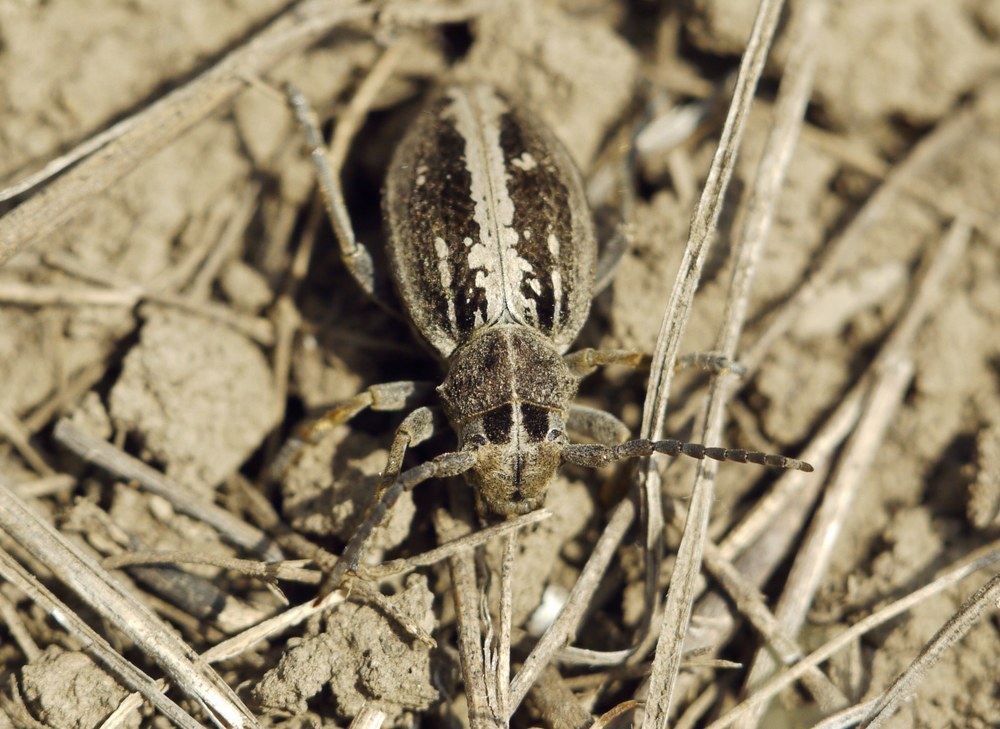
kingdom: Animalia
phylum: Arthropoda
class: Insecta
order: Coleoptera
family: Cerambycidae
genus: Dorcadion
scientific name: Dorcadion equestre
